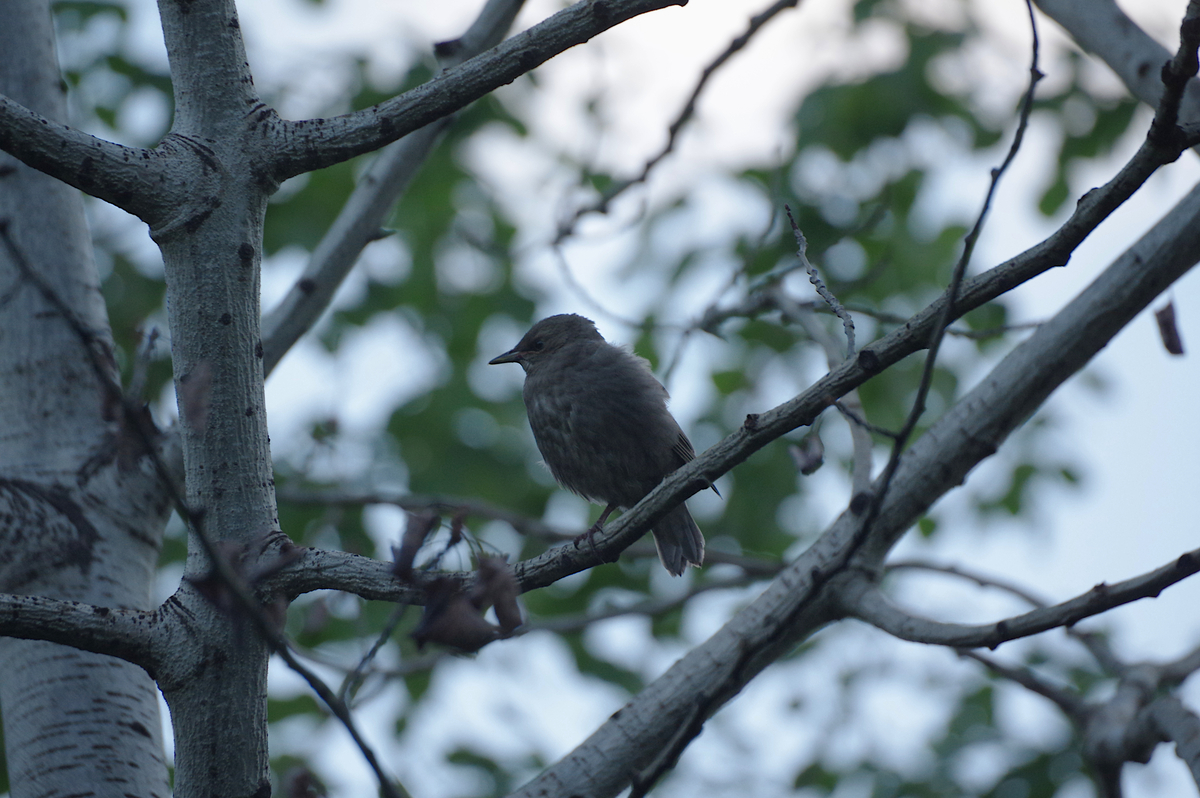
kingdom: Animalia
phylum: Chordata
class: Aves
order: Passeriformes
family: Sturnidae
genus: Sturnus
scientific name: Sturnus vulgaris
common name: Common starling
